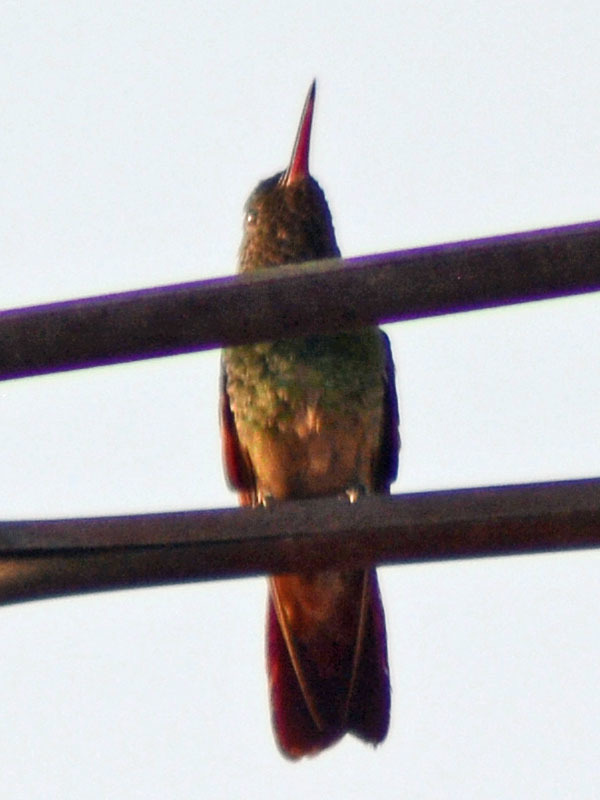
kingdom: Animalia
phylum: Chordata
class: Aves
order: Apodiformes
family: Trochilidae
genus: Saucerottia
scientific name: Saucerottia beryllina
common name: Berylline hummingbird
